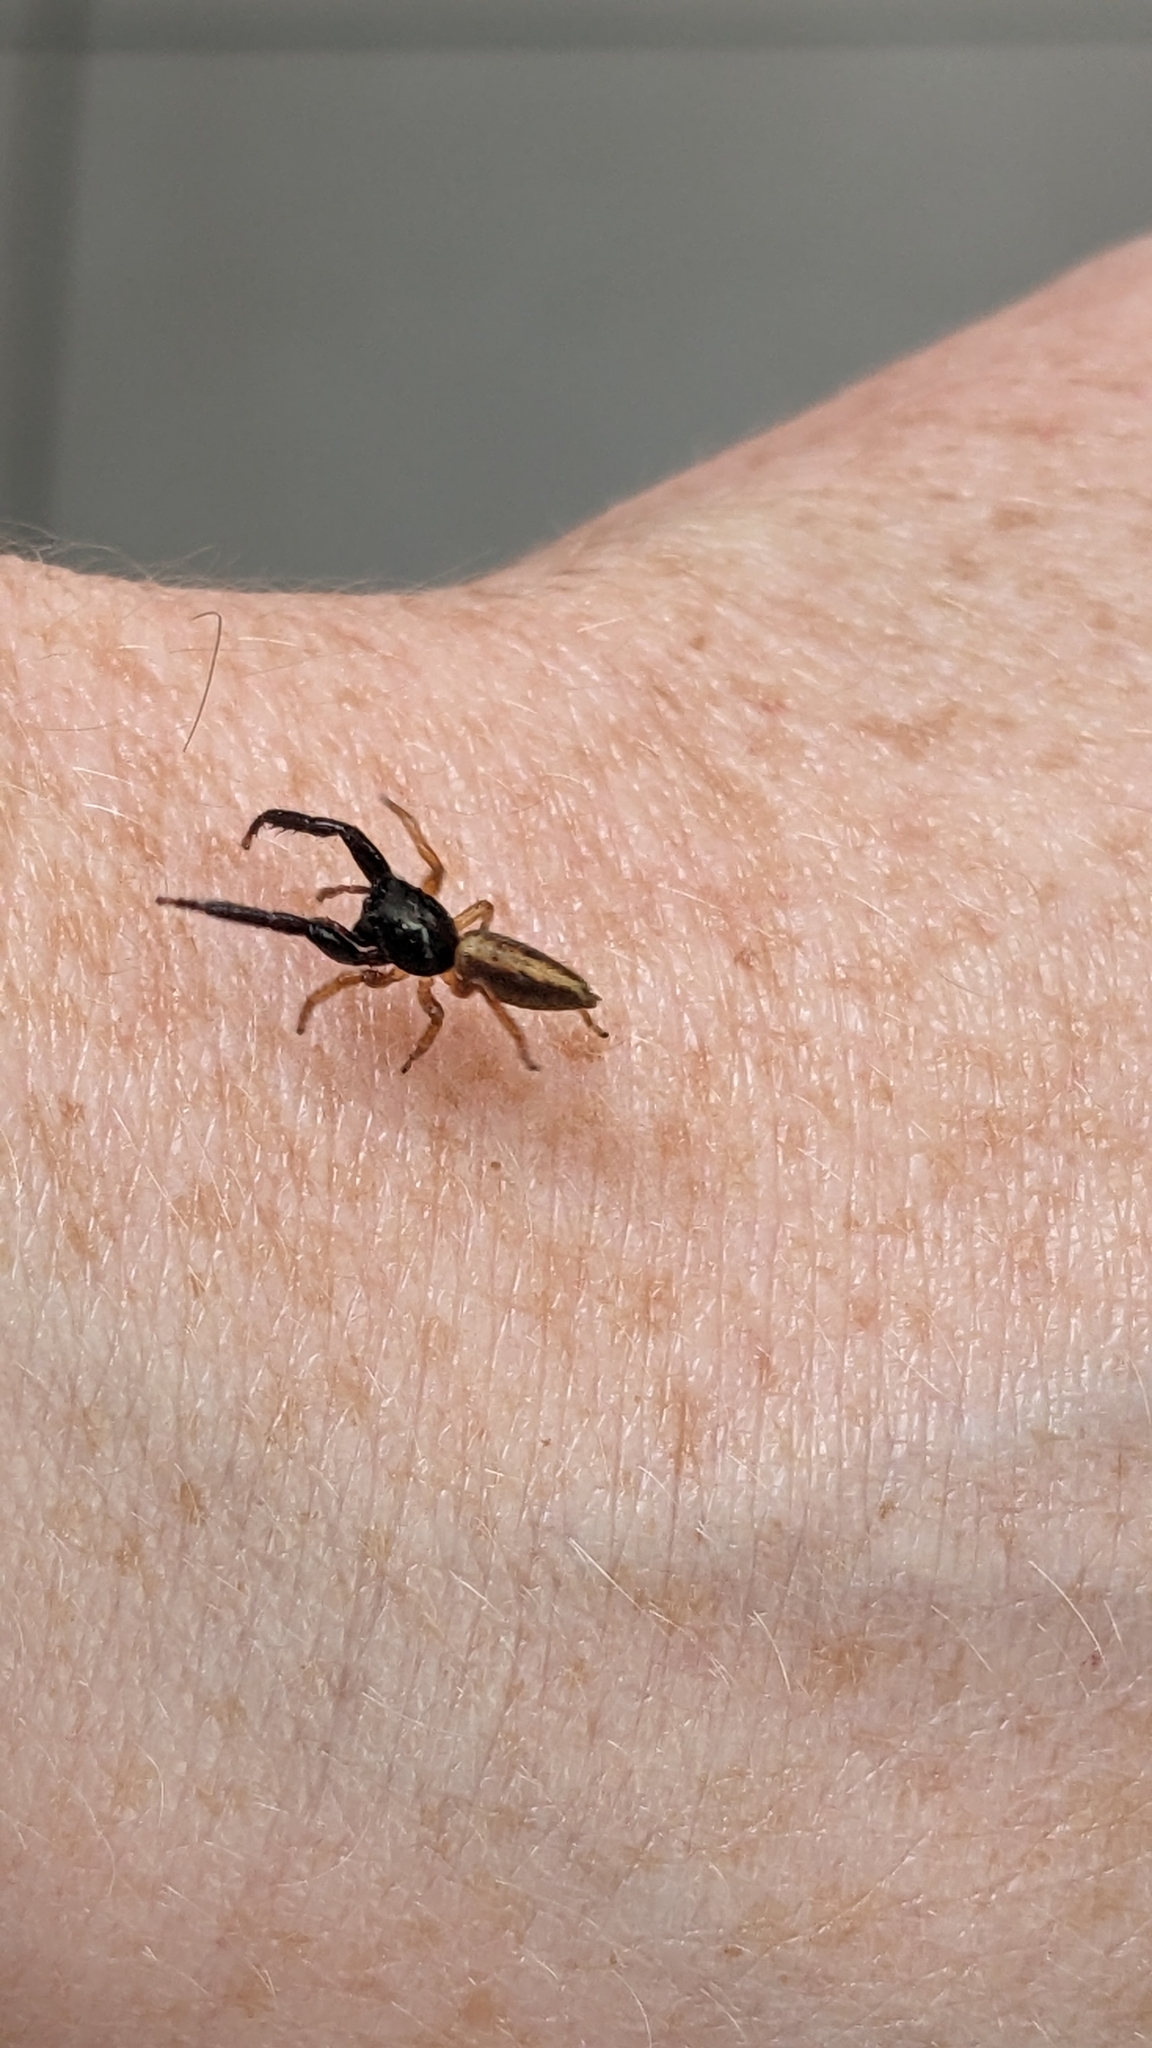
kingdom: Animalia
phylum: Arthropoda
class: Arachnida
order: Araneae
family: Salticidae
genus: Trite
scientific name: Trite planiceps
